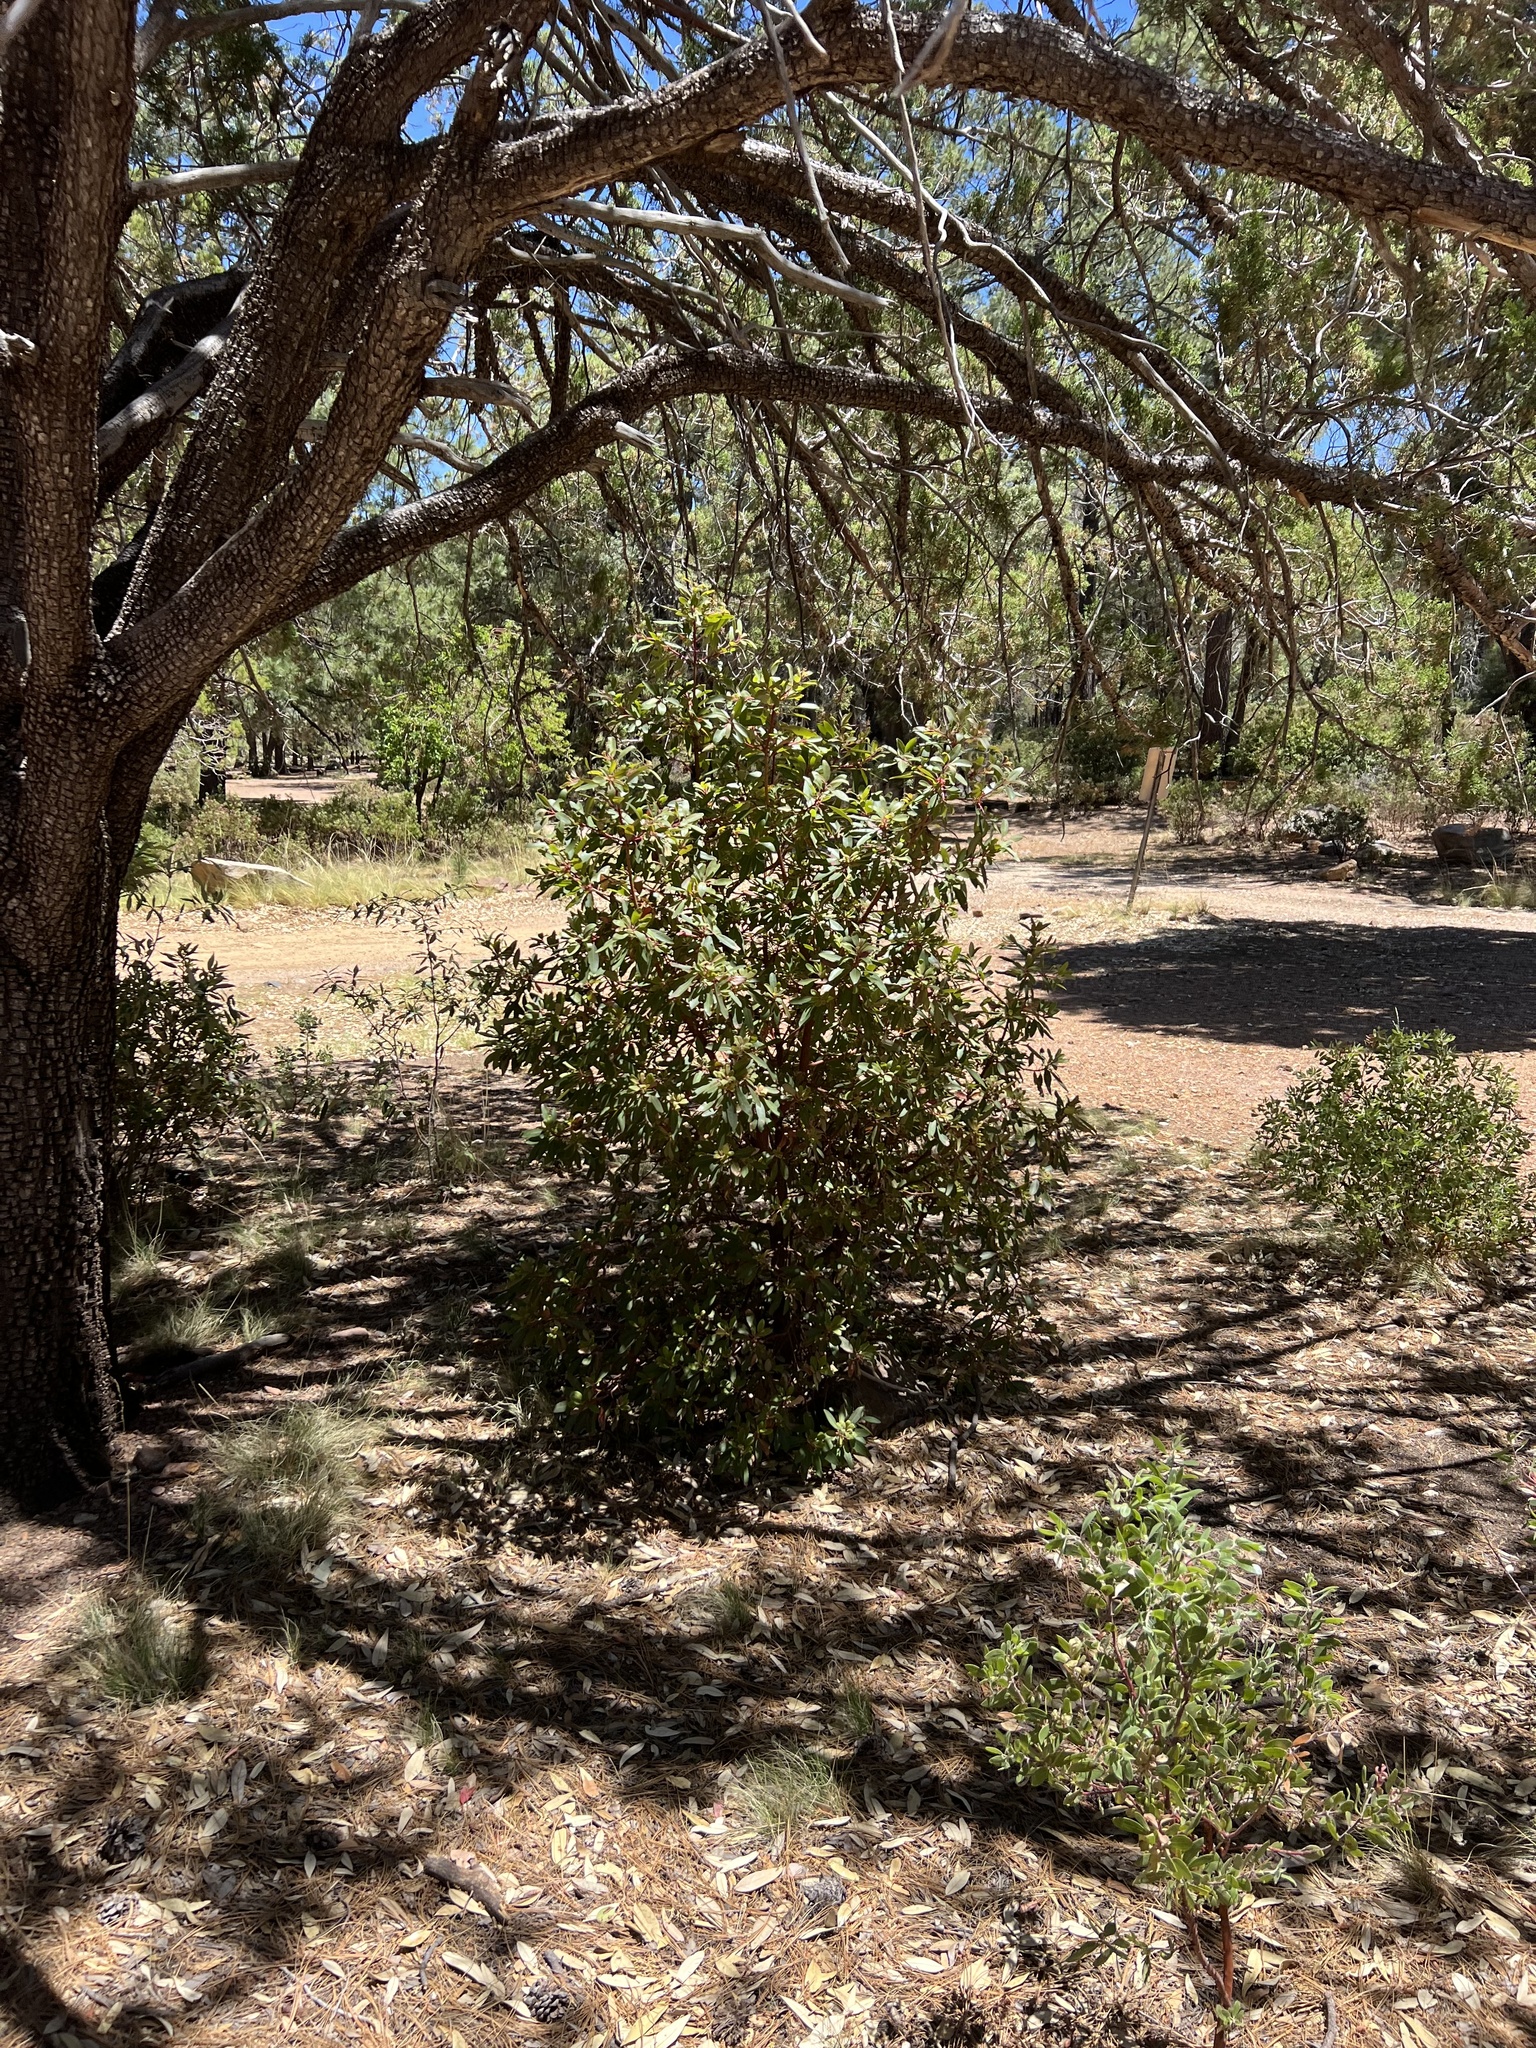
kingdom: Plantae
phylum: Tracheophyta
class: Magnoliopsida
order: Ericales
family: Ericaceae
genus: Arbutus
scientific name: Arbutus arizonica
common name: Arizona madrone
